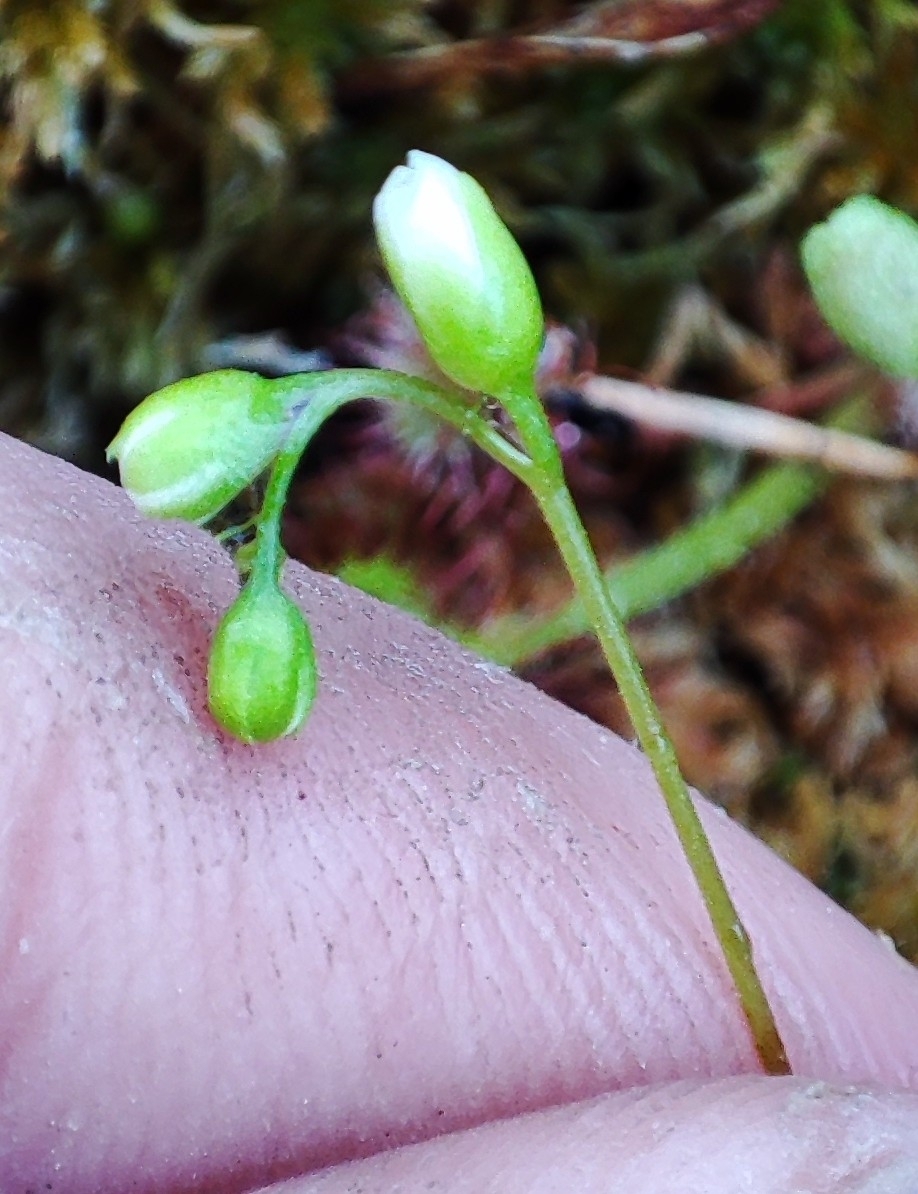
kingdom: Plantae
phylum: Tracheophyta
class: Magnoliopsida
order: Caryophyllales
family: Droseraceae
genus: Drosera
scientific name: Drosera rotundifolia
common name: Round-leaved sundew
